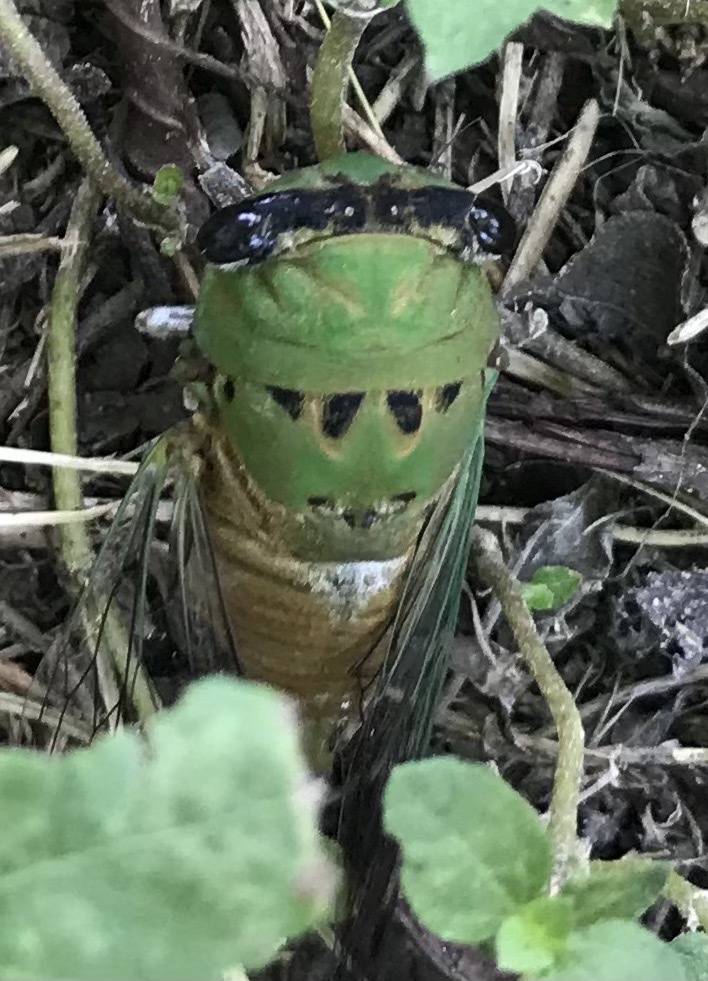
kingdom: Animalia
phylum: Arthropoda
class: Insecta
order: Hemiptera
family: Cicadidae
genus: Neotibicen
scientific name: Neotibicen superbus
